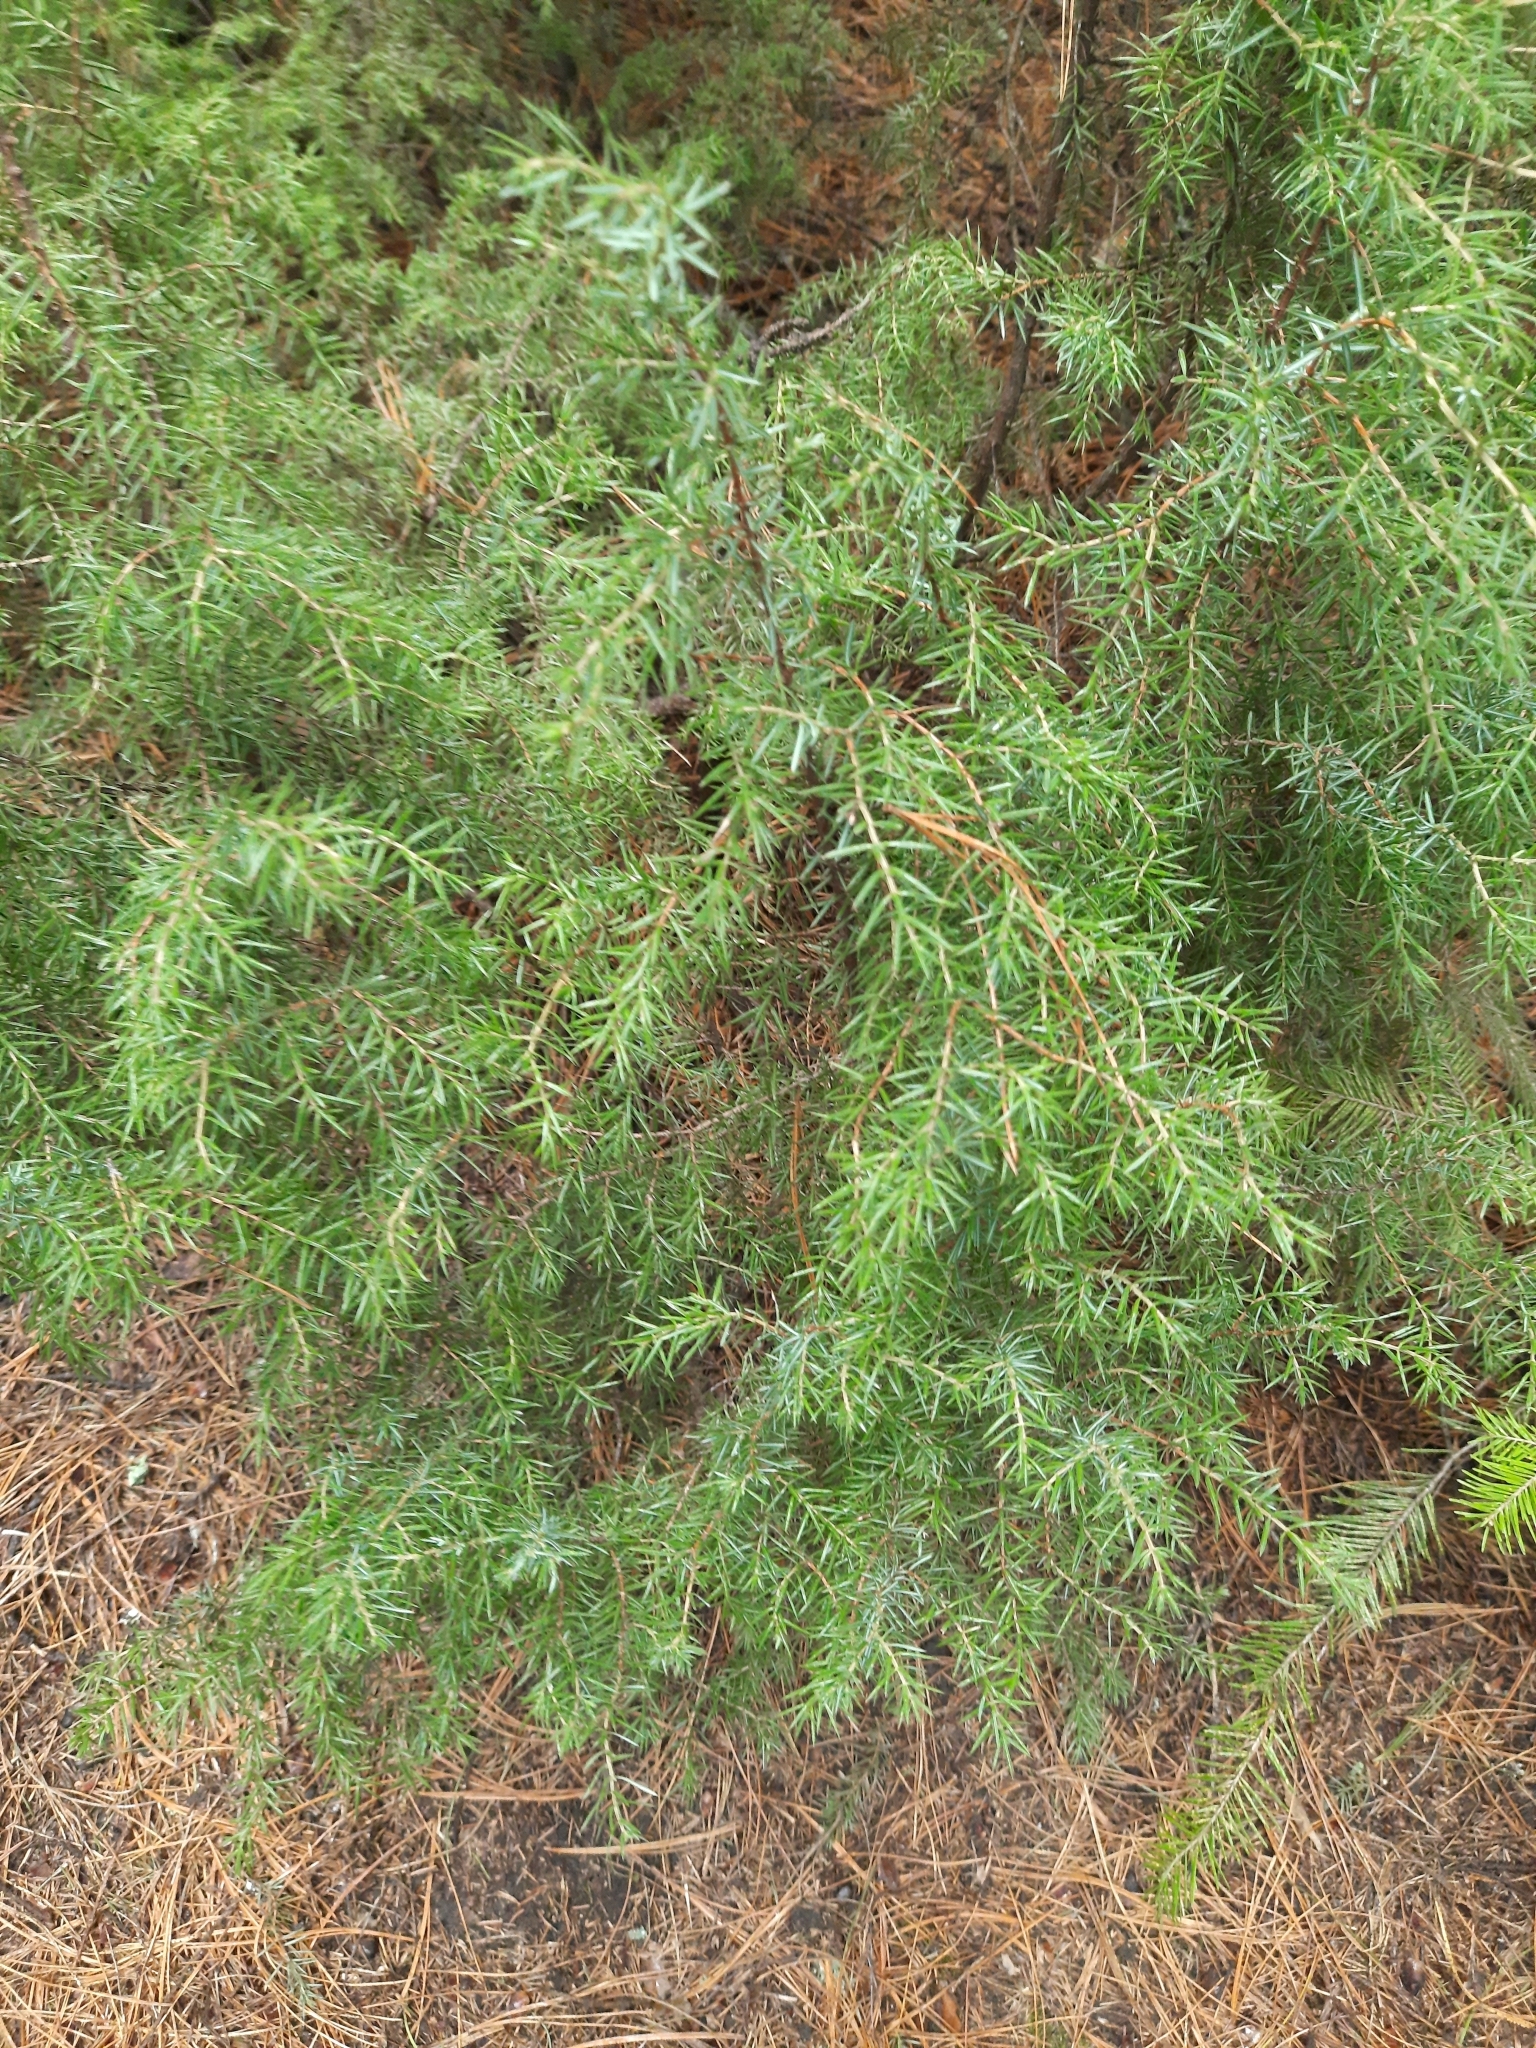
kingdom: Plantae
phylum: Tracheophyta
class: Pinopsida
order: Pinales
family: Cupressaceae
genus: Juniperus
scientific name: Juniperus communis
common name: Common juniper
